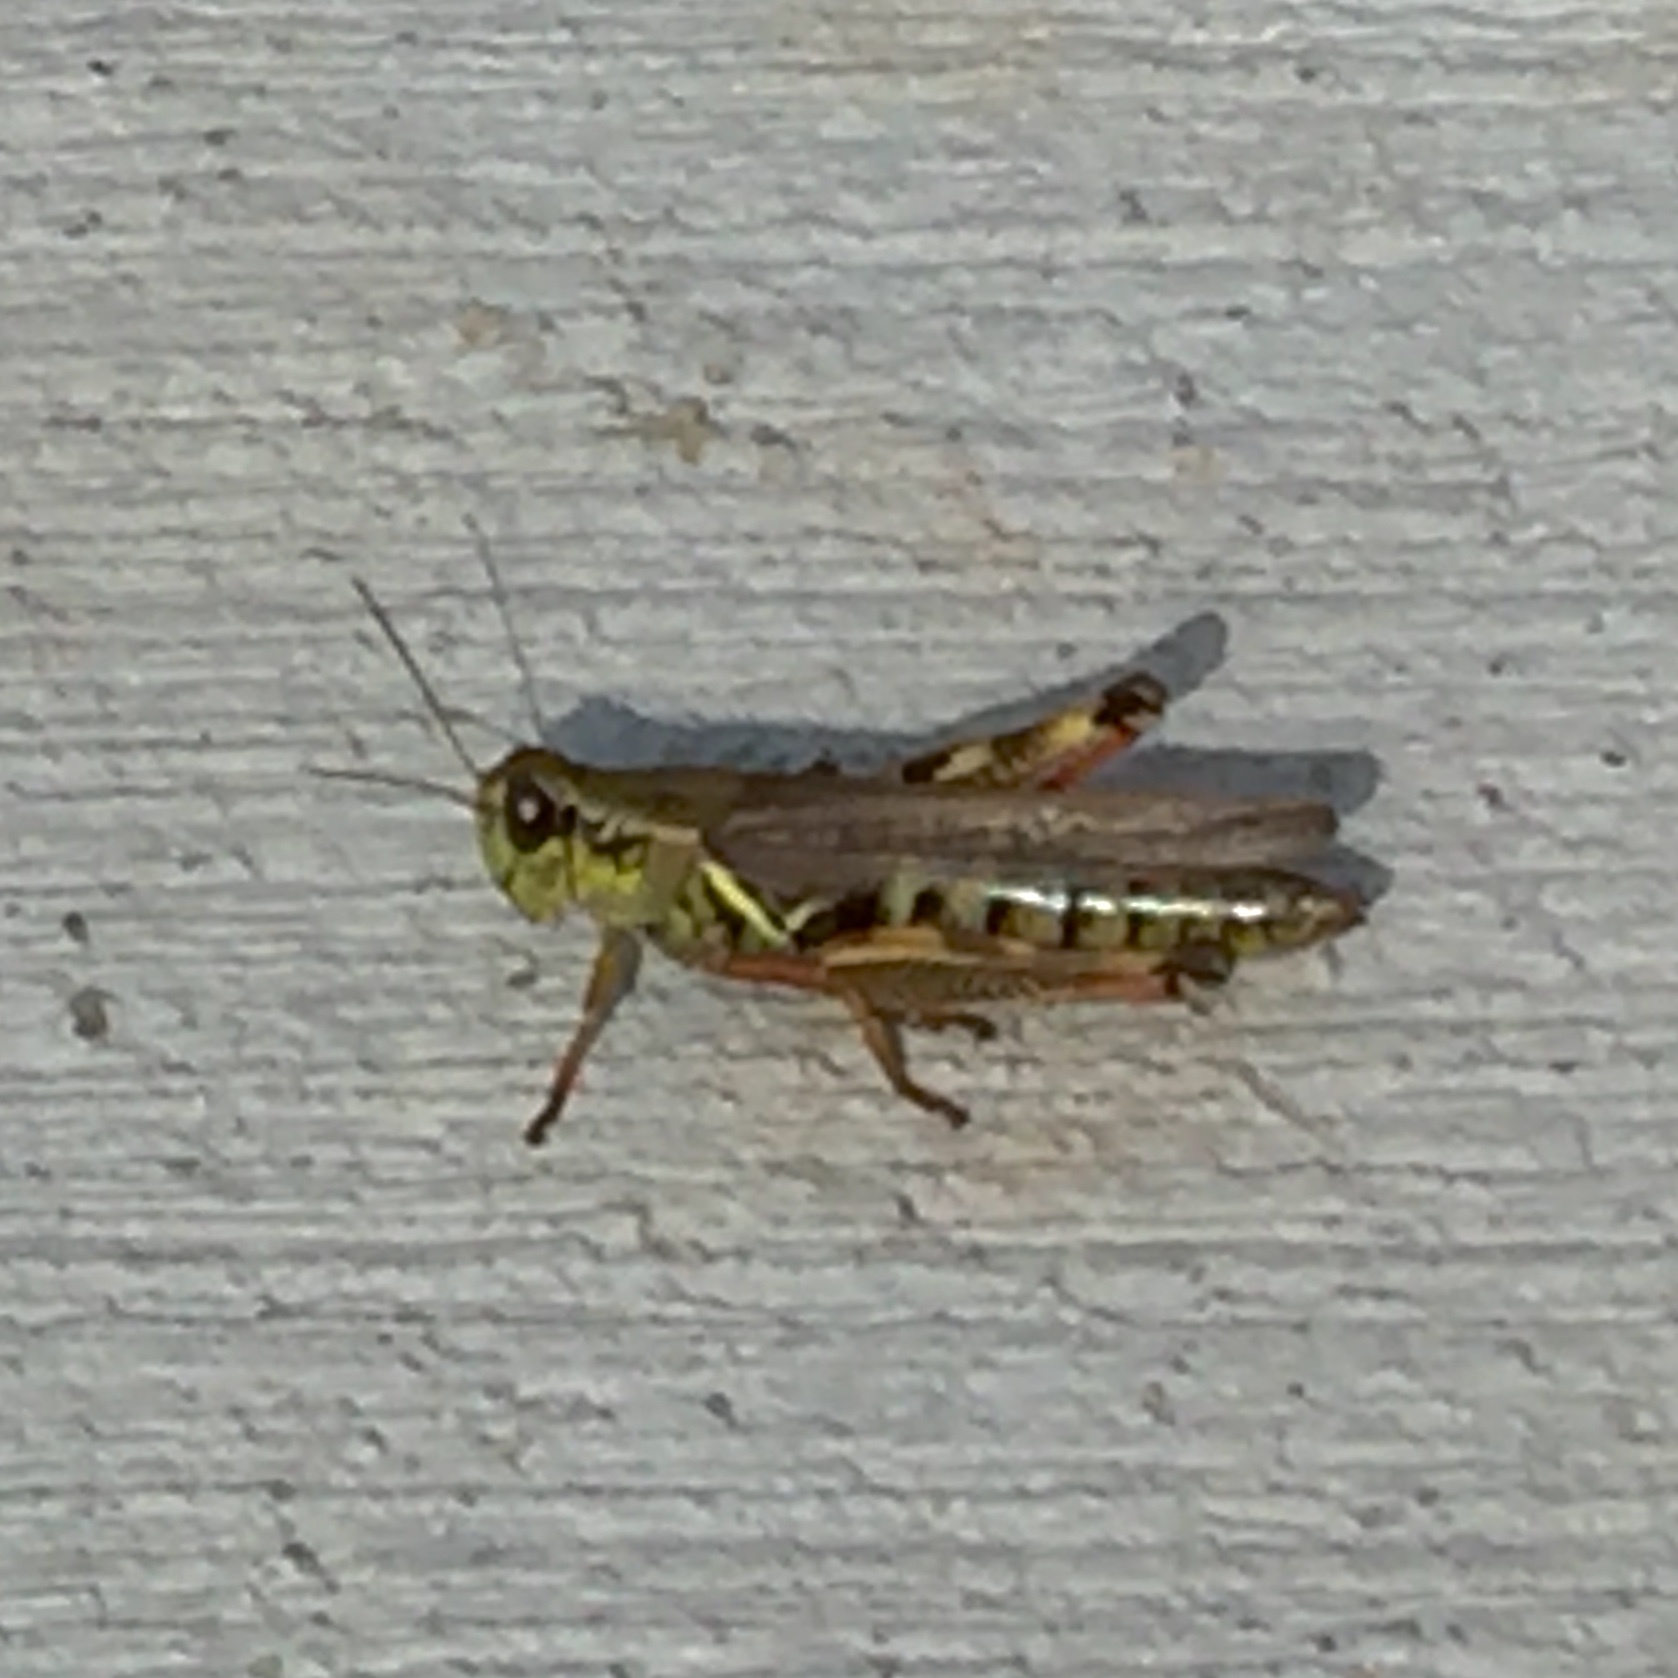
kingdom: Animalia
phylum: Arthropoda
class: Insecta
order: Orthoptera
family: Acrididae
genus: Melanoplus
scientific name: Melanoplus femurrubrum
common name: Red-legged grasshopper
